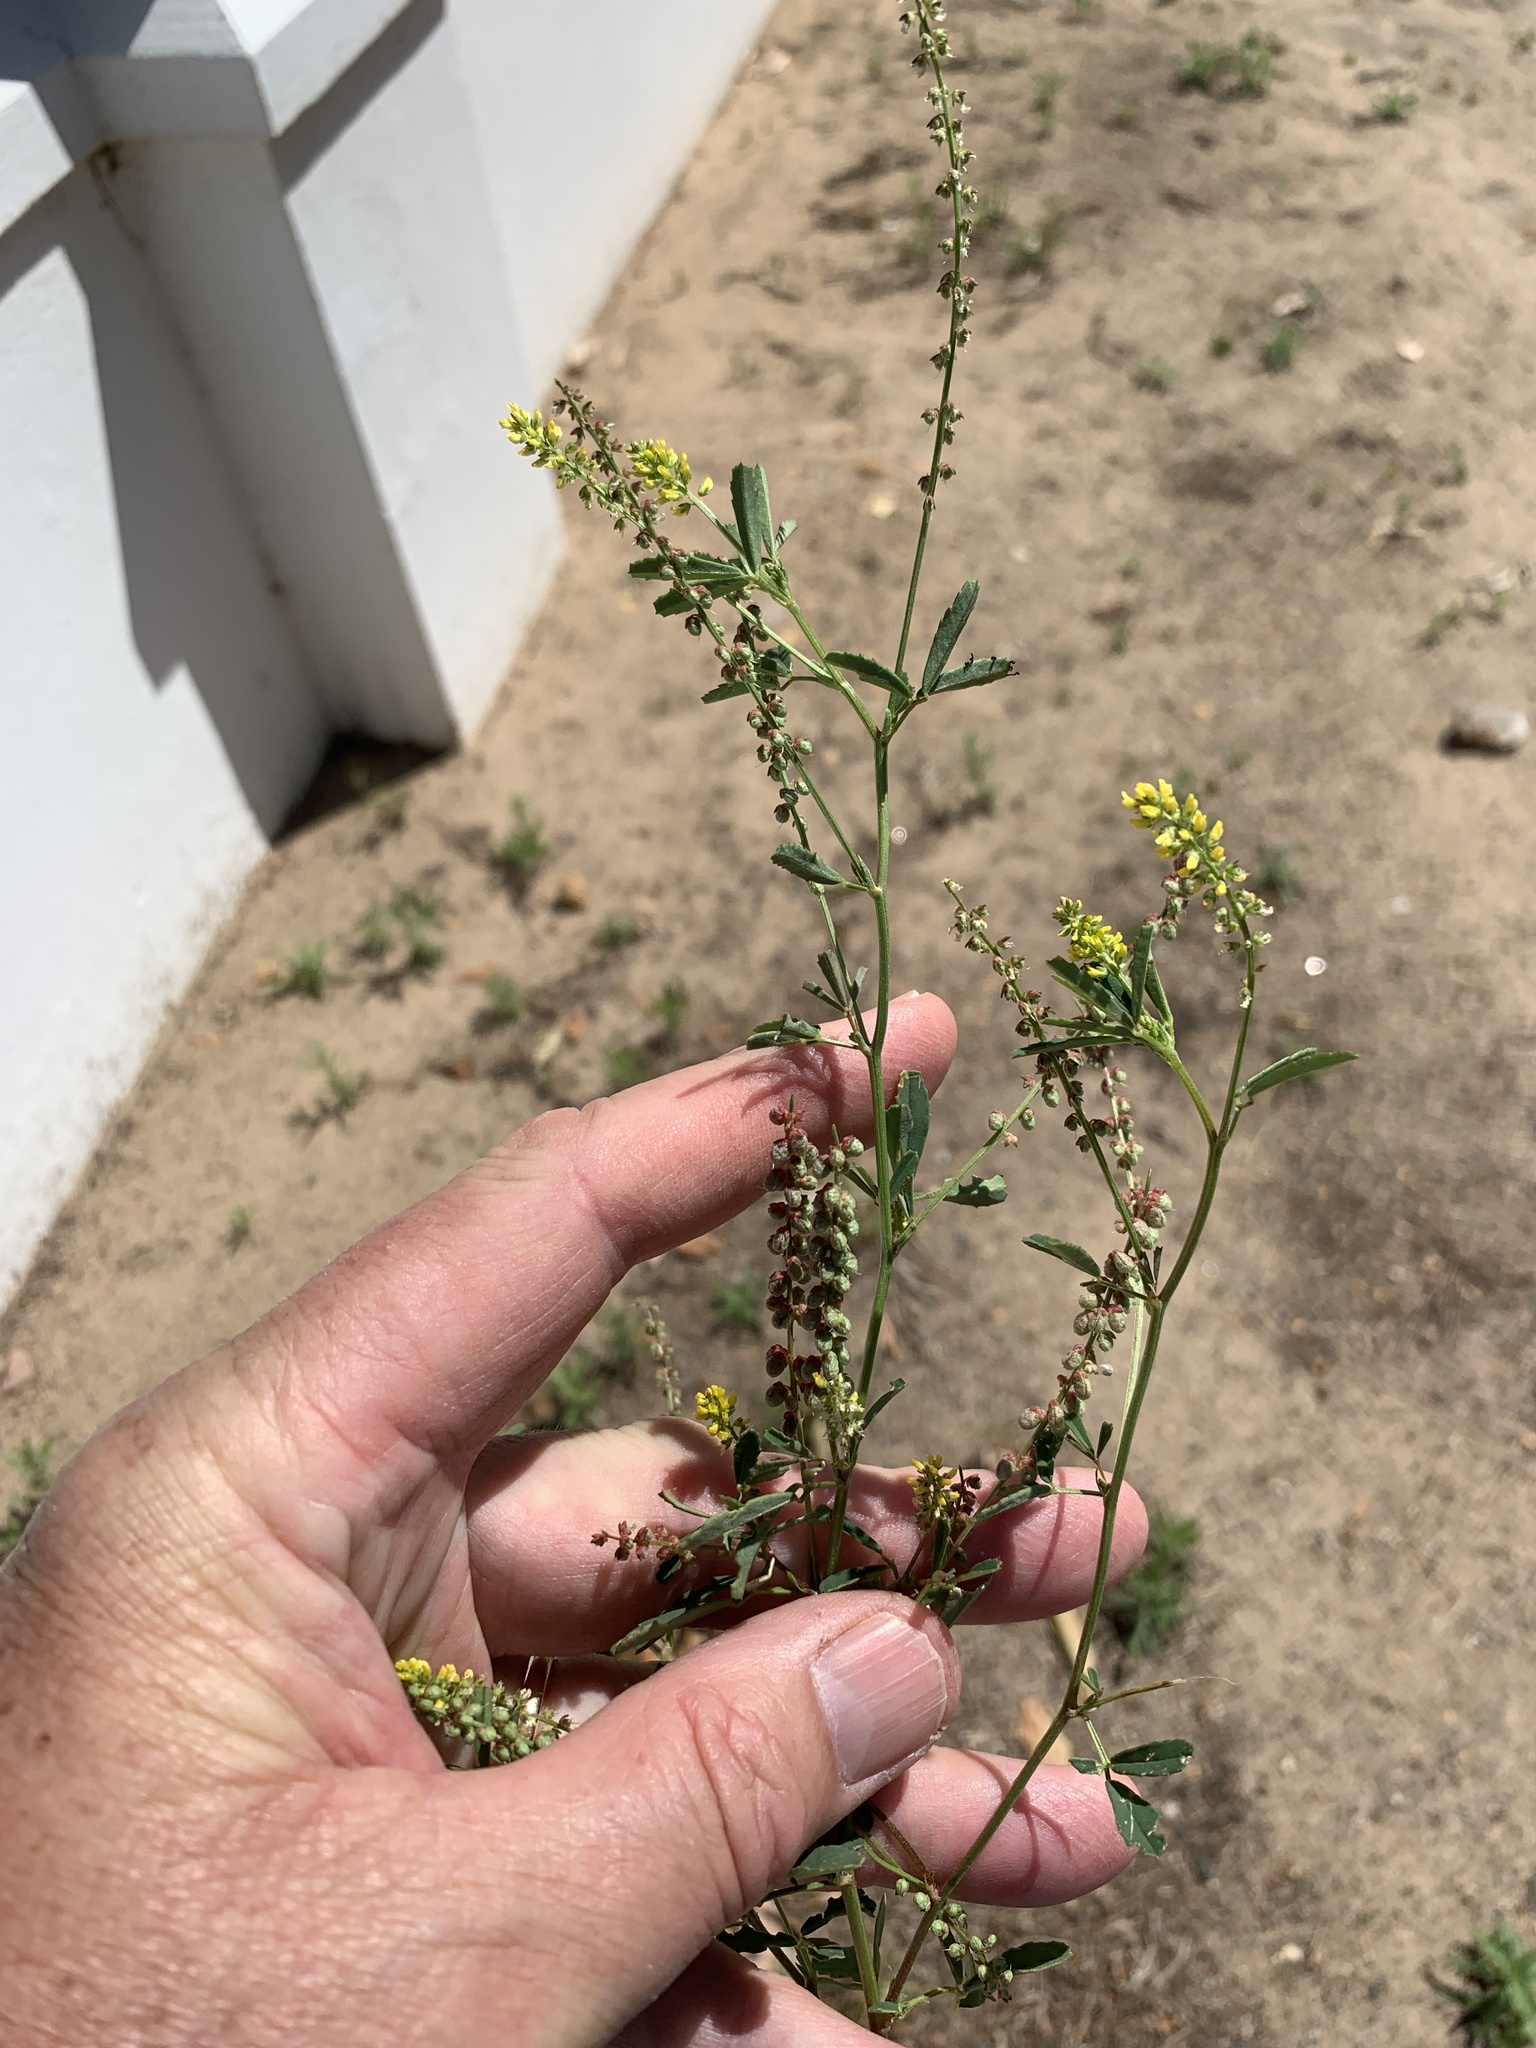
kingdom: Plantae
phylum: Tracheophyta
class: Magnoliopsida
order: Fabales
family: Fabaceae
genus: Melilotus
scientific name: Melilotus indicus
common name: Small melilot
